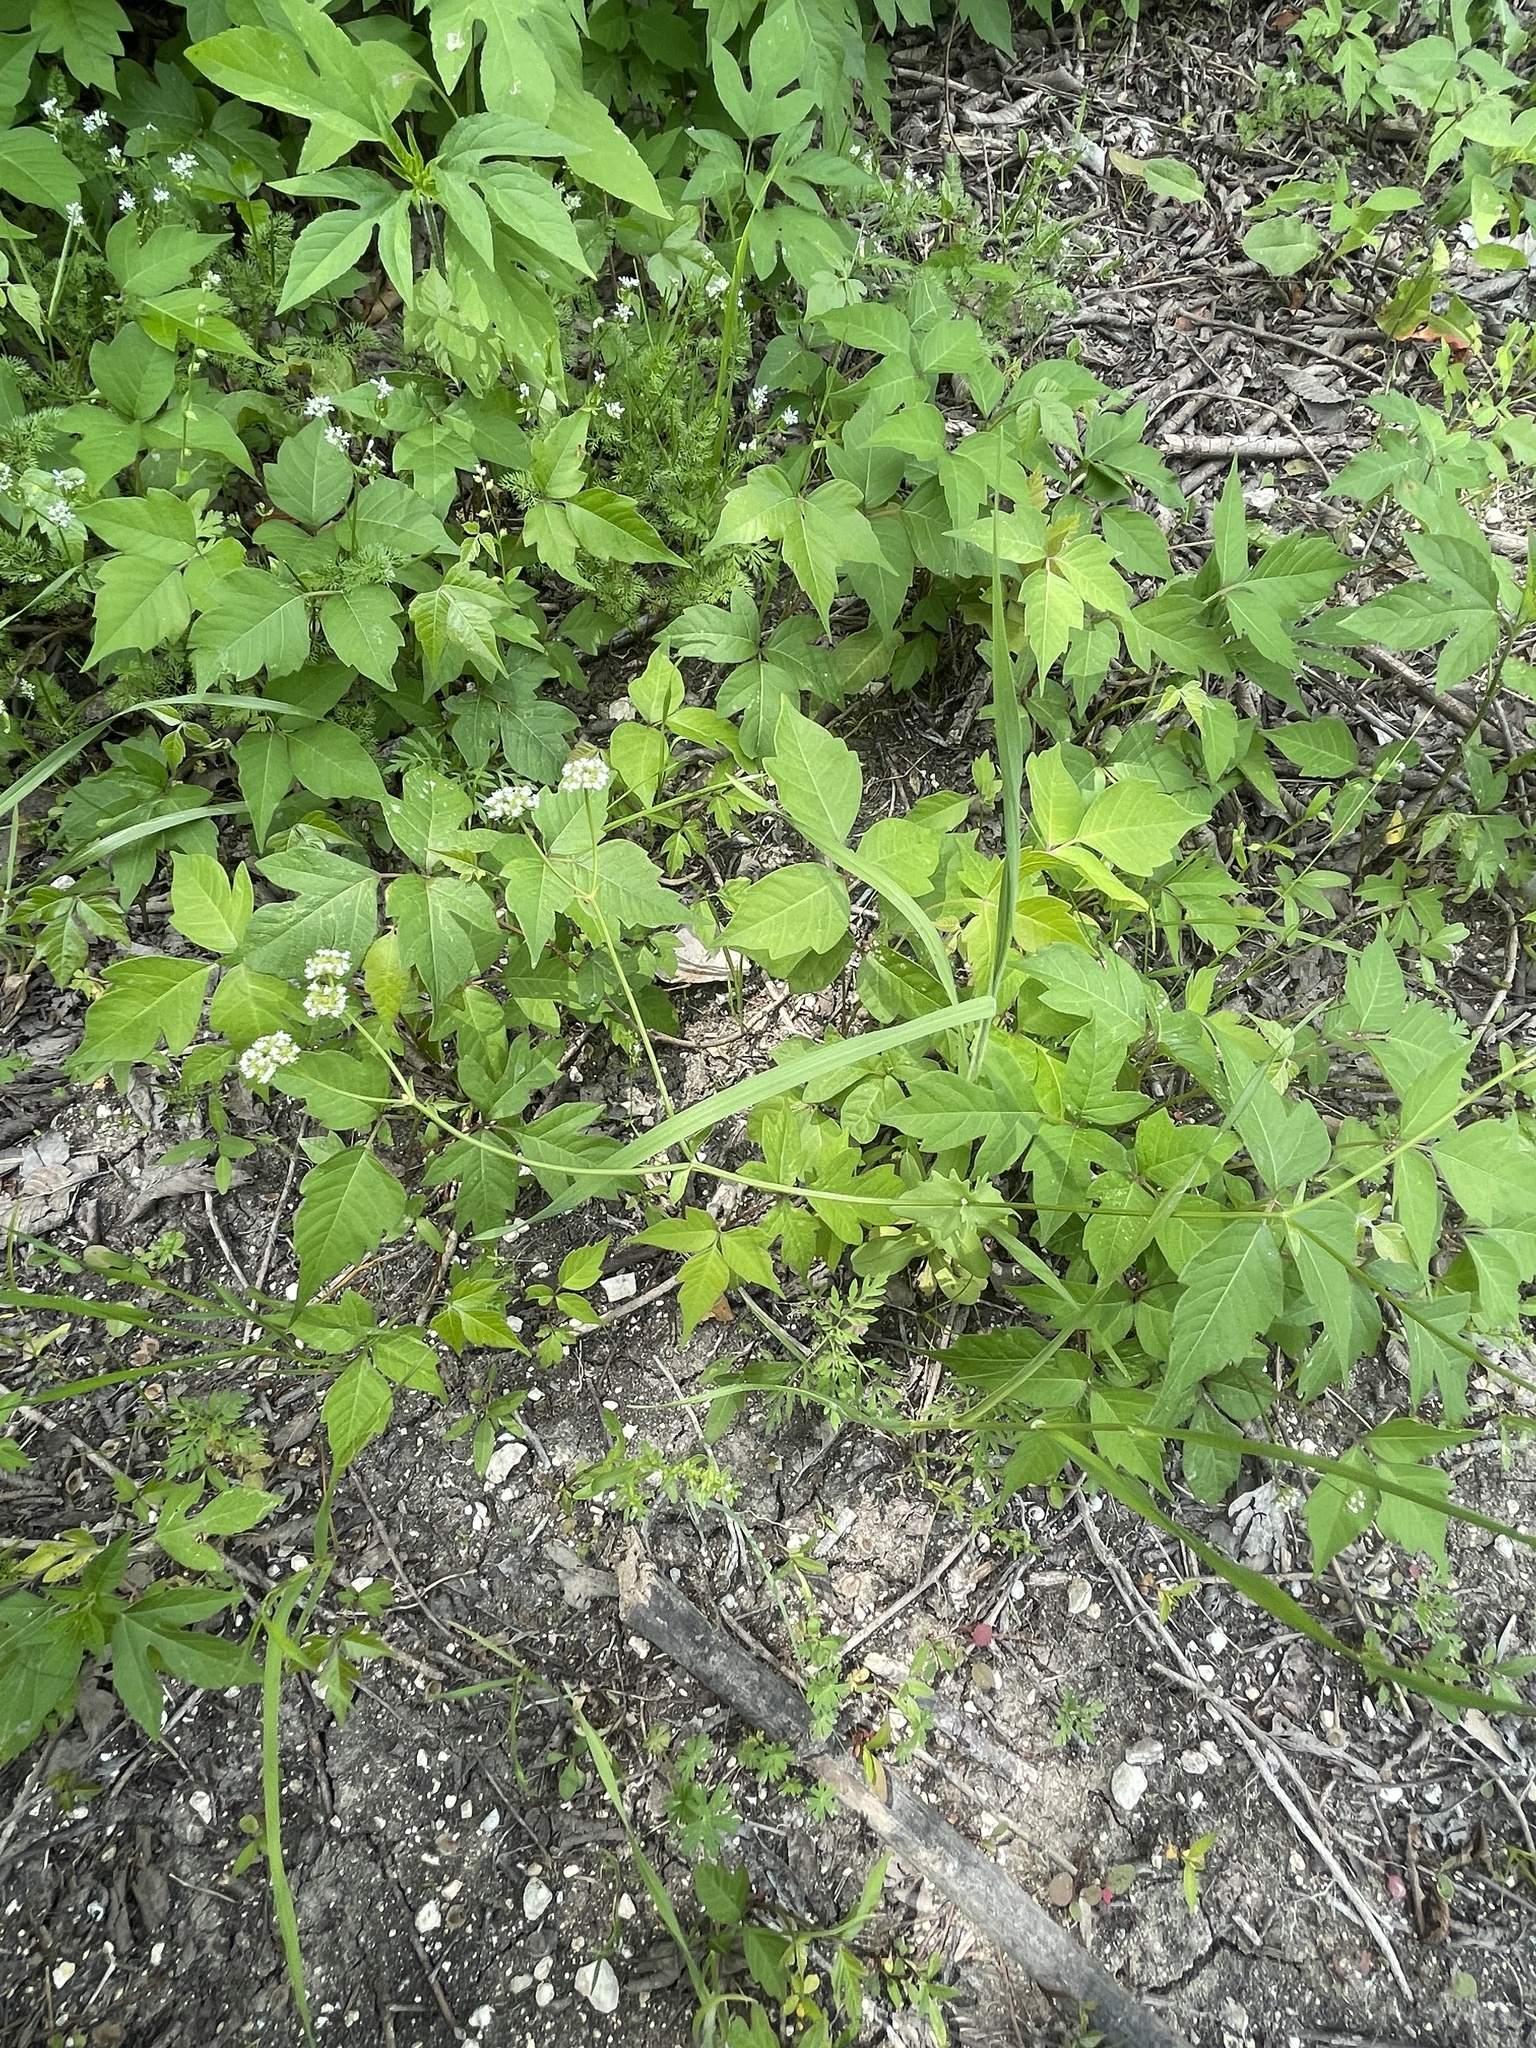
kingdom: Plantae
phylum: Tracheophyta
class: Magnoliopsida
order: Dipsacales
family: Caprifoliaceae
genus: Valerianella
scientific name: Valerianella radiata
